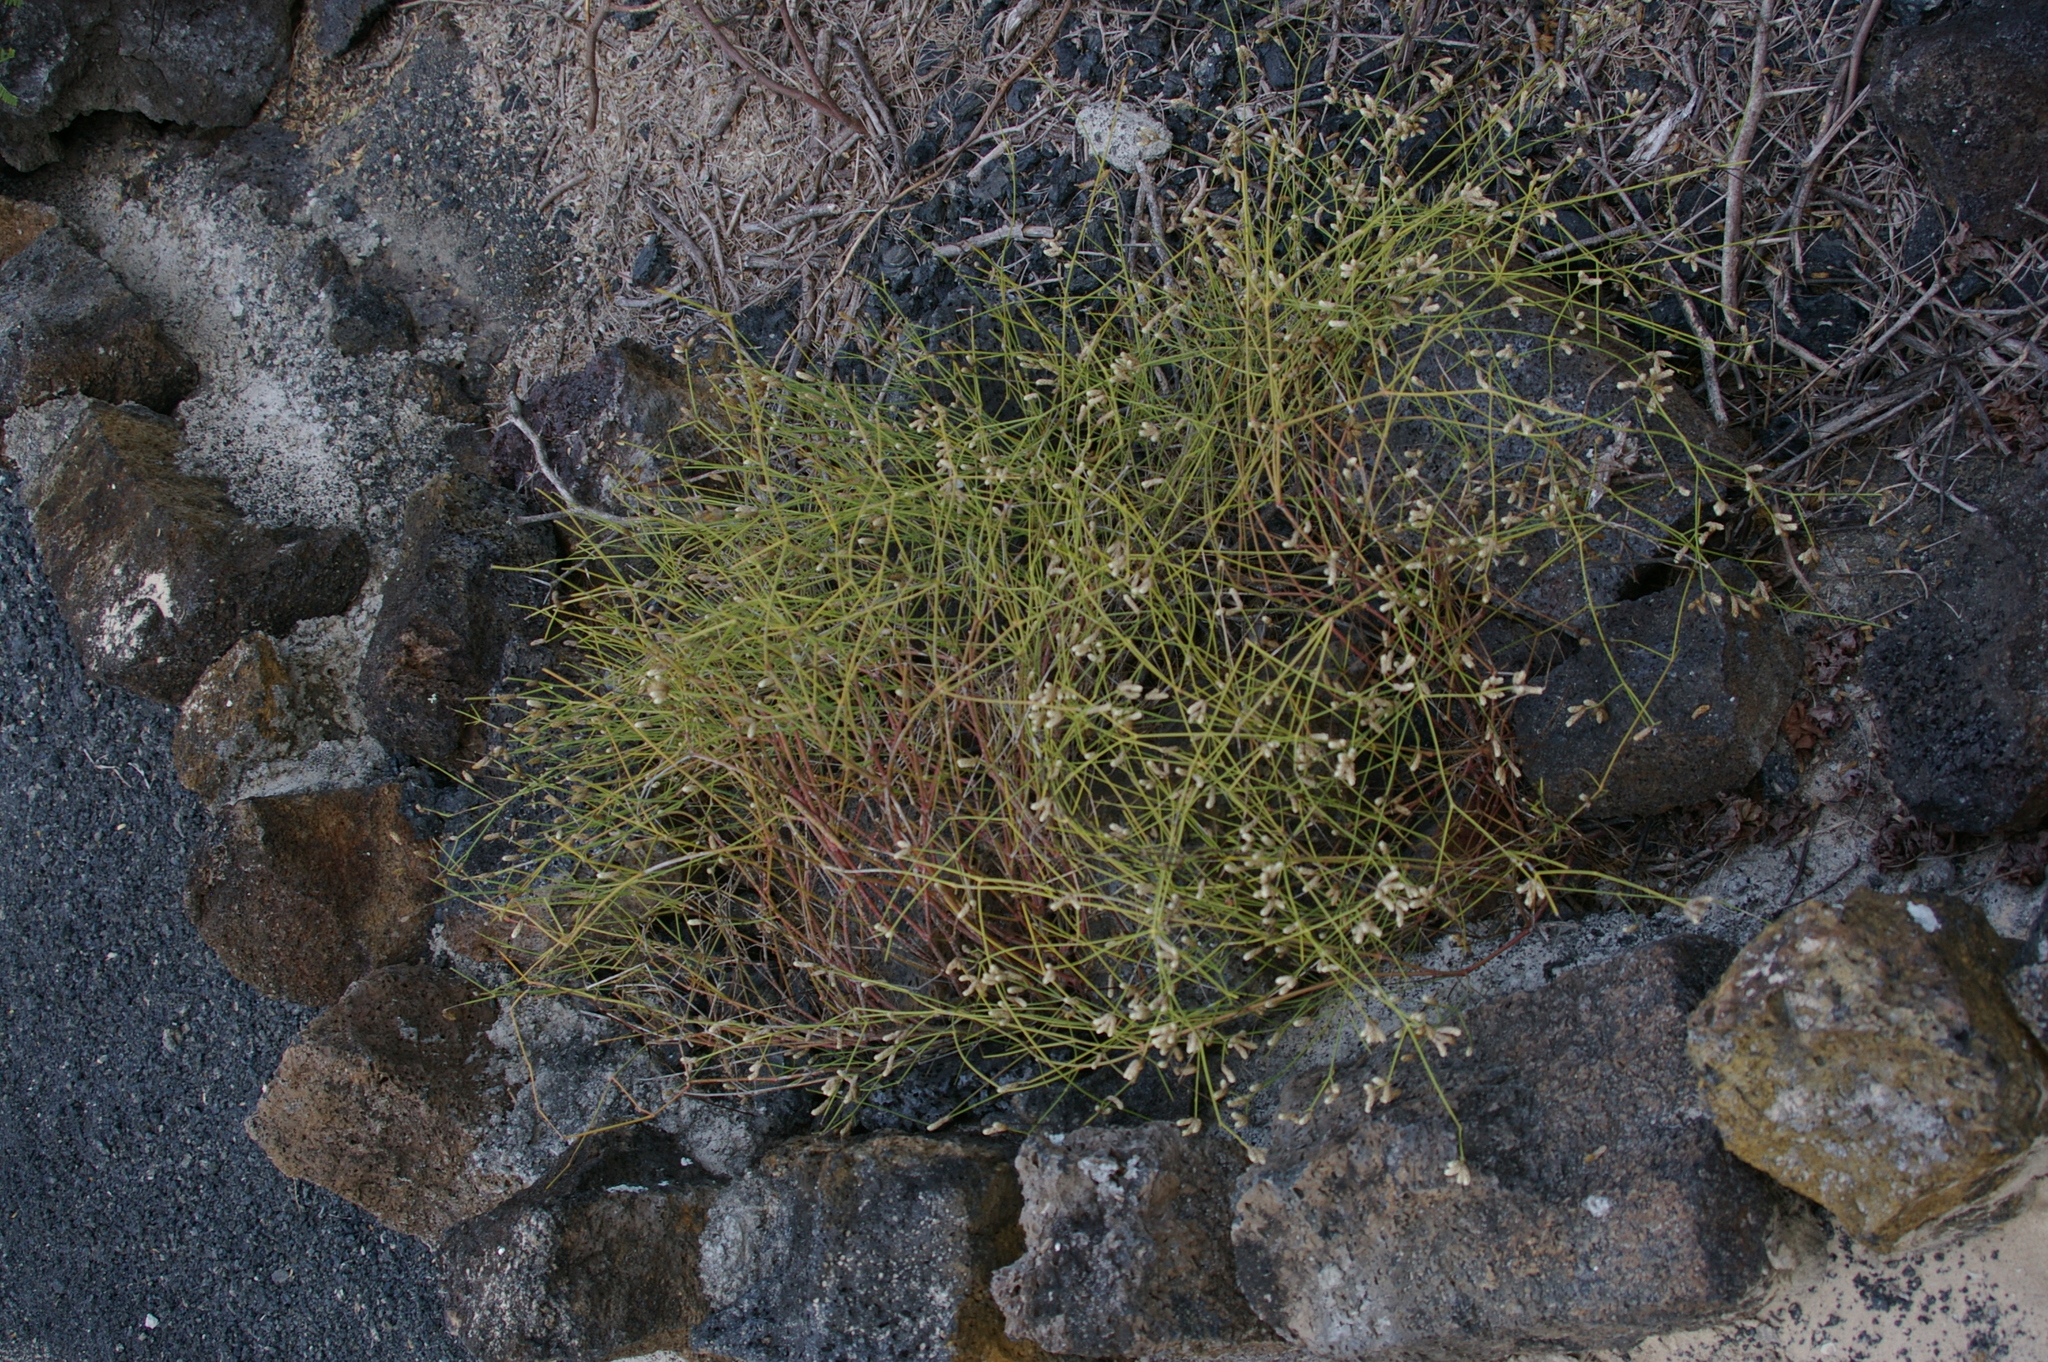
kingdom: Plantae
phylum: Tracheophyta
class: Magnoliopsida
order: Caryophyllales
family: Amaranthaceae
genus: Alternanthera
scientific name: Alternanthera filifolia
